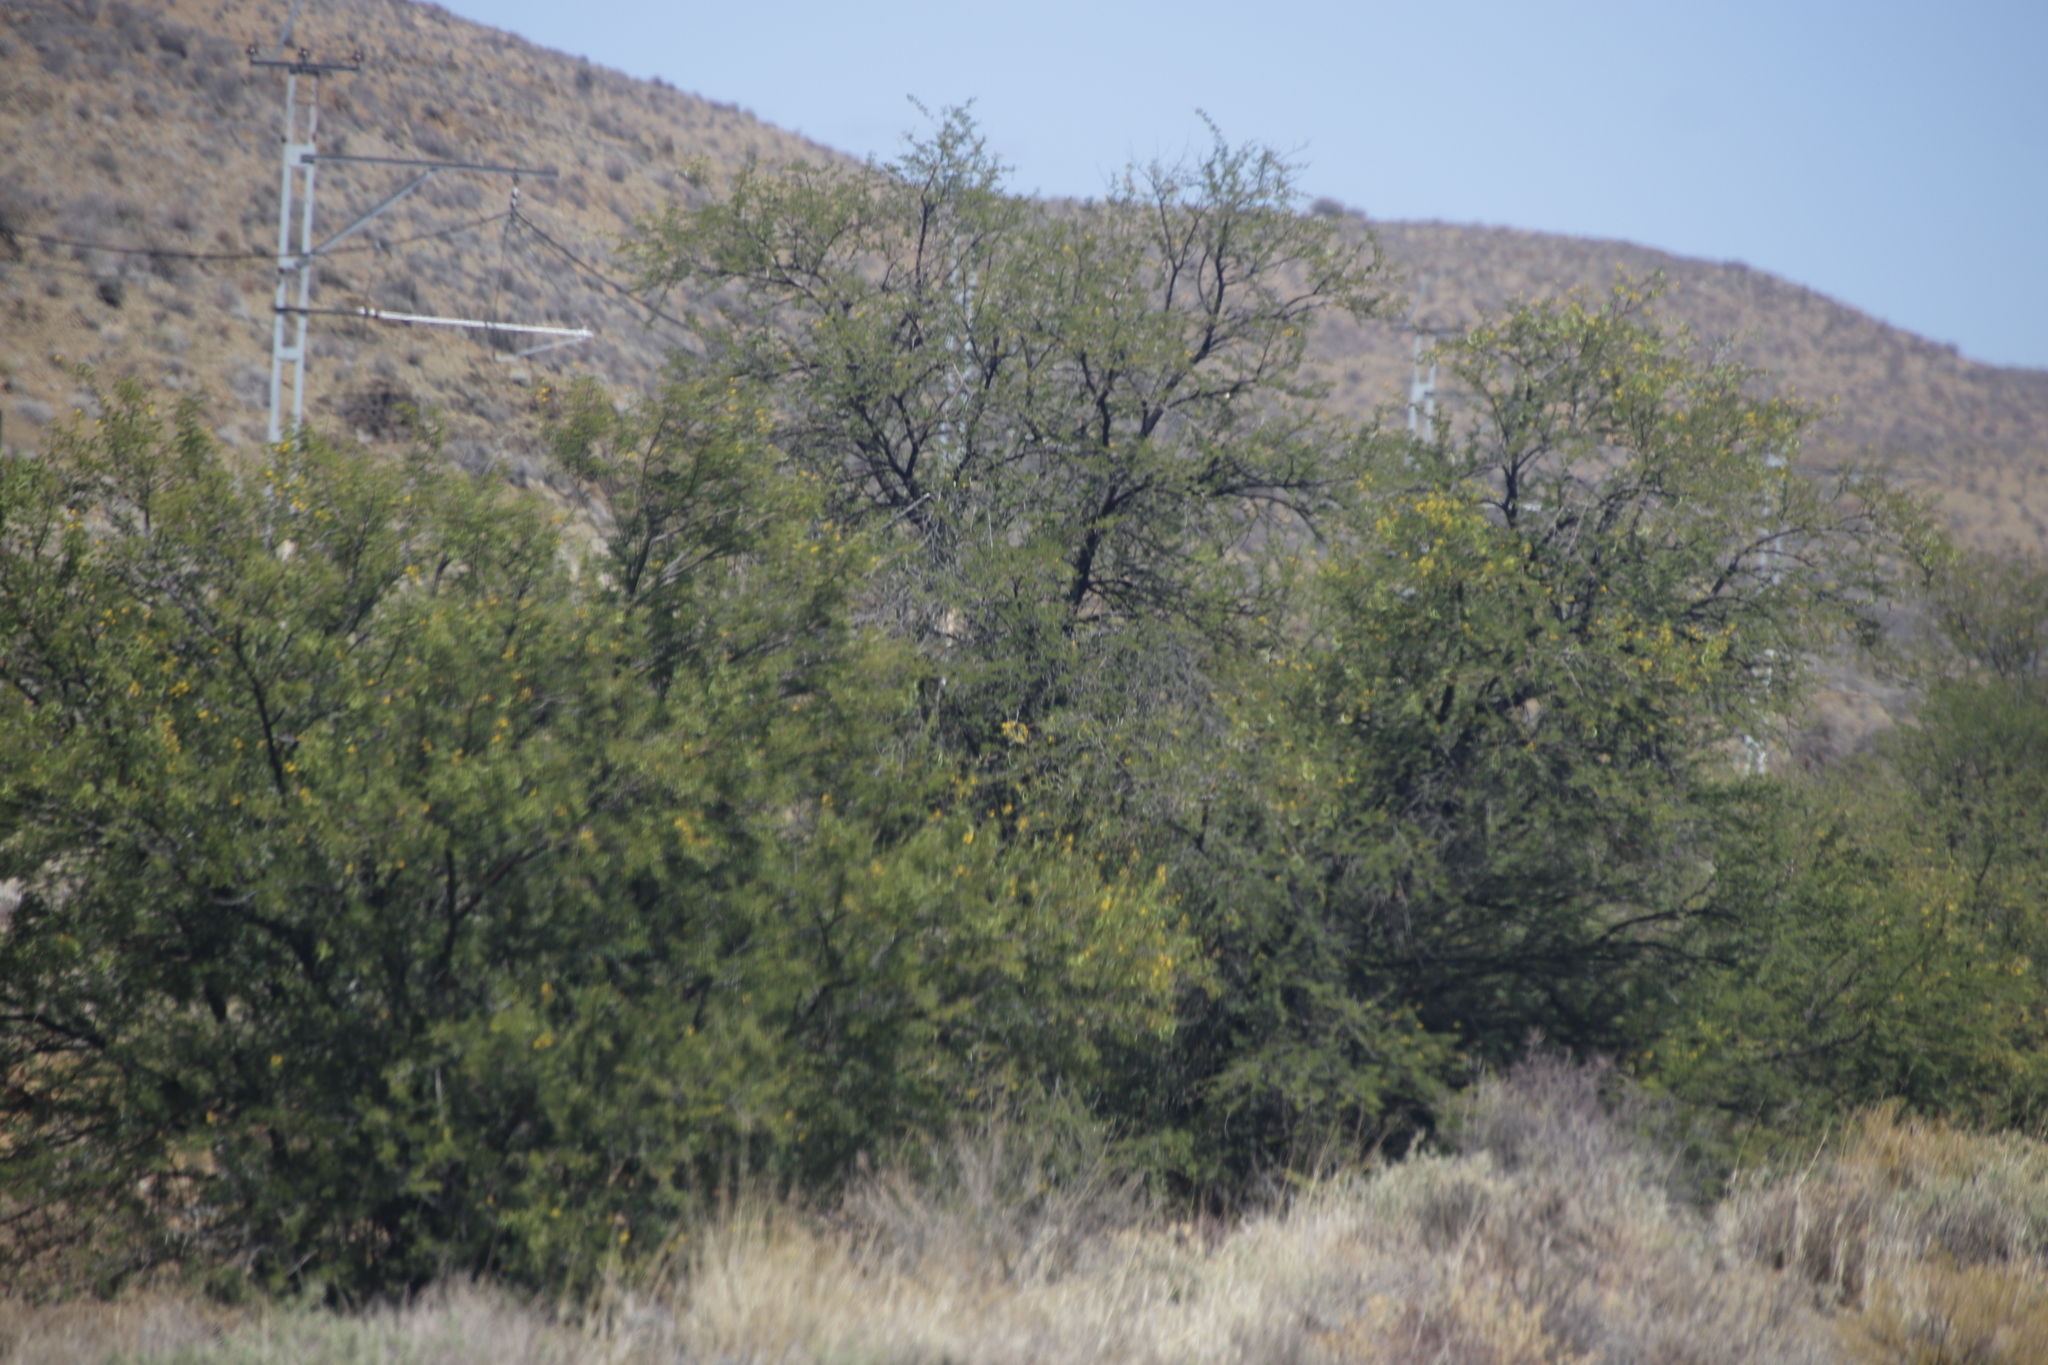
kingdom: Plantae
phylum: Tracheophyta
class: Magnoliopsida
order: Fabales
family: Fabaceae
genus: Vachellia
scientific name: Vachellia karroo
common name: Sweet thorn
